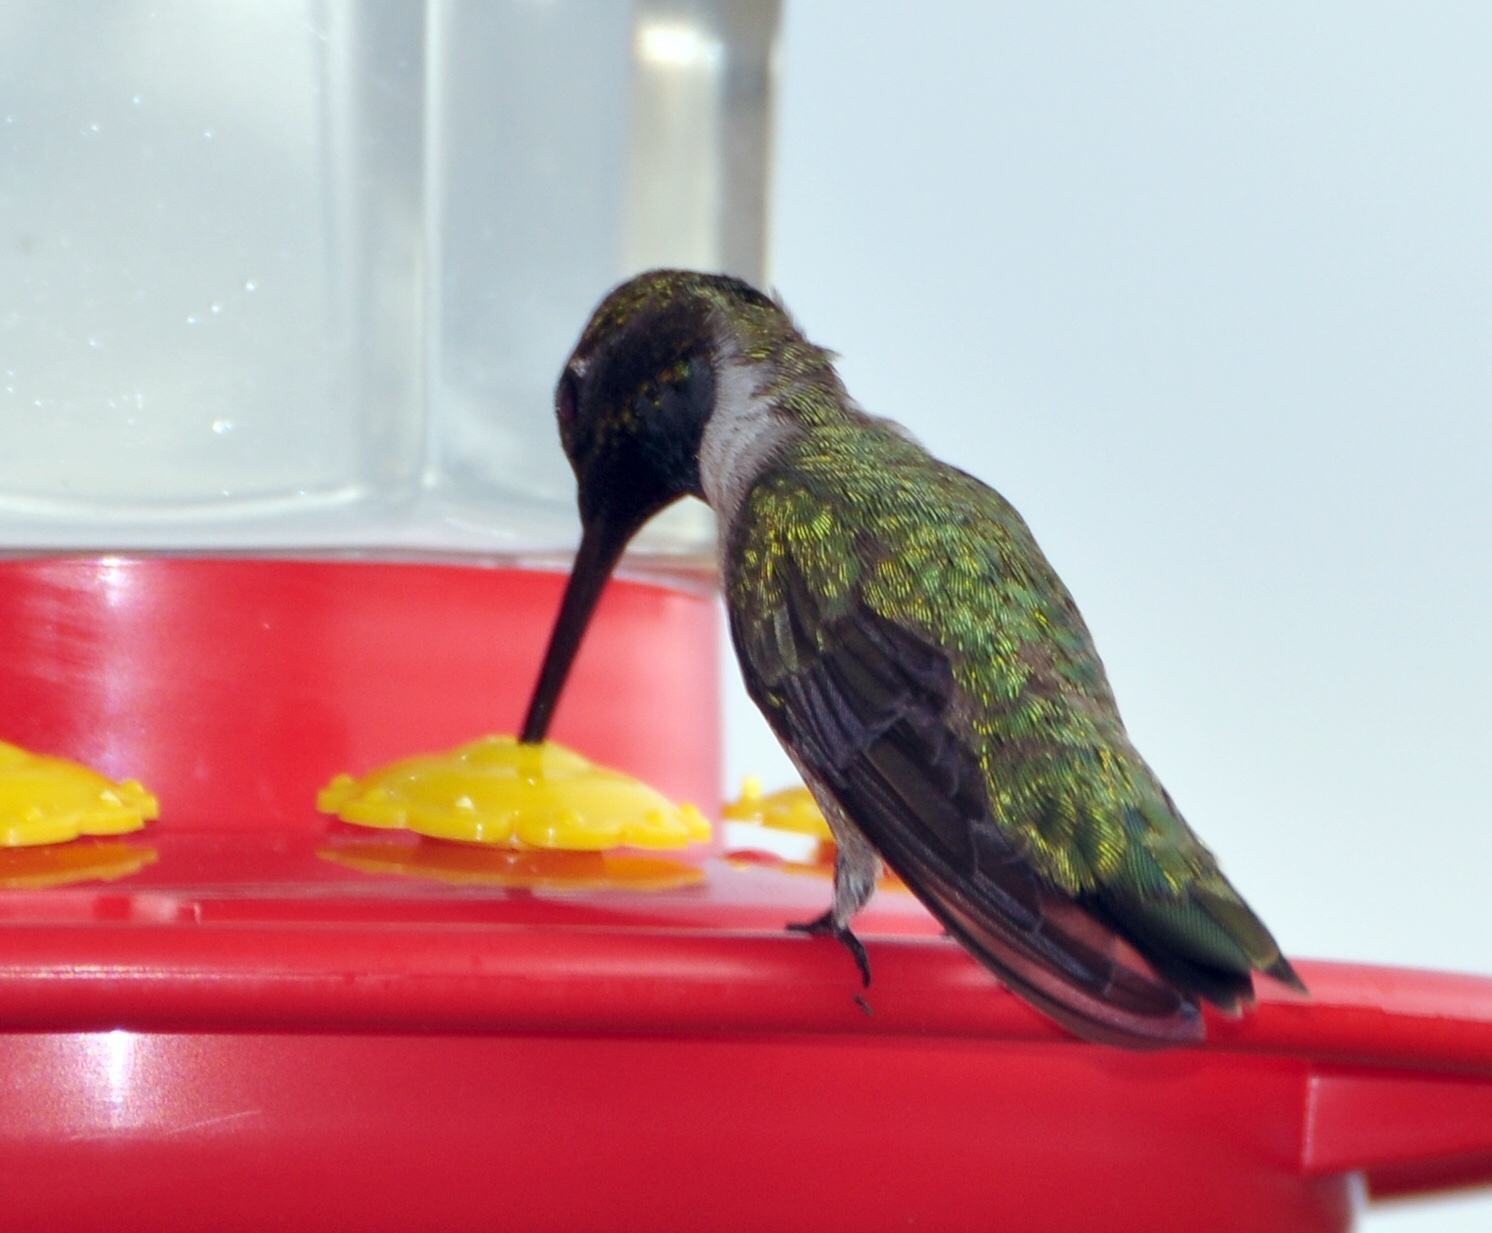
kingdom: Animalia
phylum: Chordata
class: Aves
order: Apodiformes
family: Trochilidae
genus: Archilochus
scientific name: Archilochus alexandri
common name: Black-chinned hummingbird
